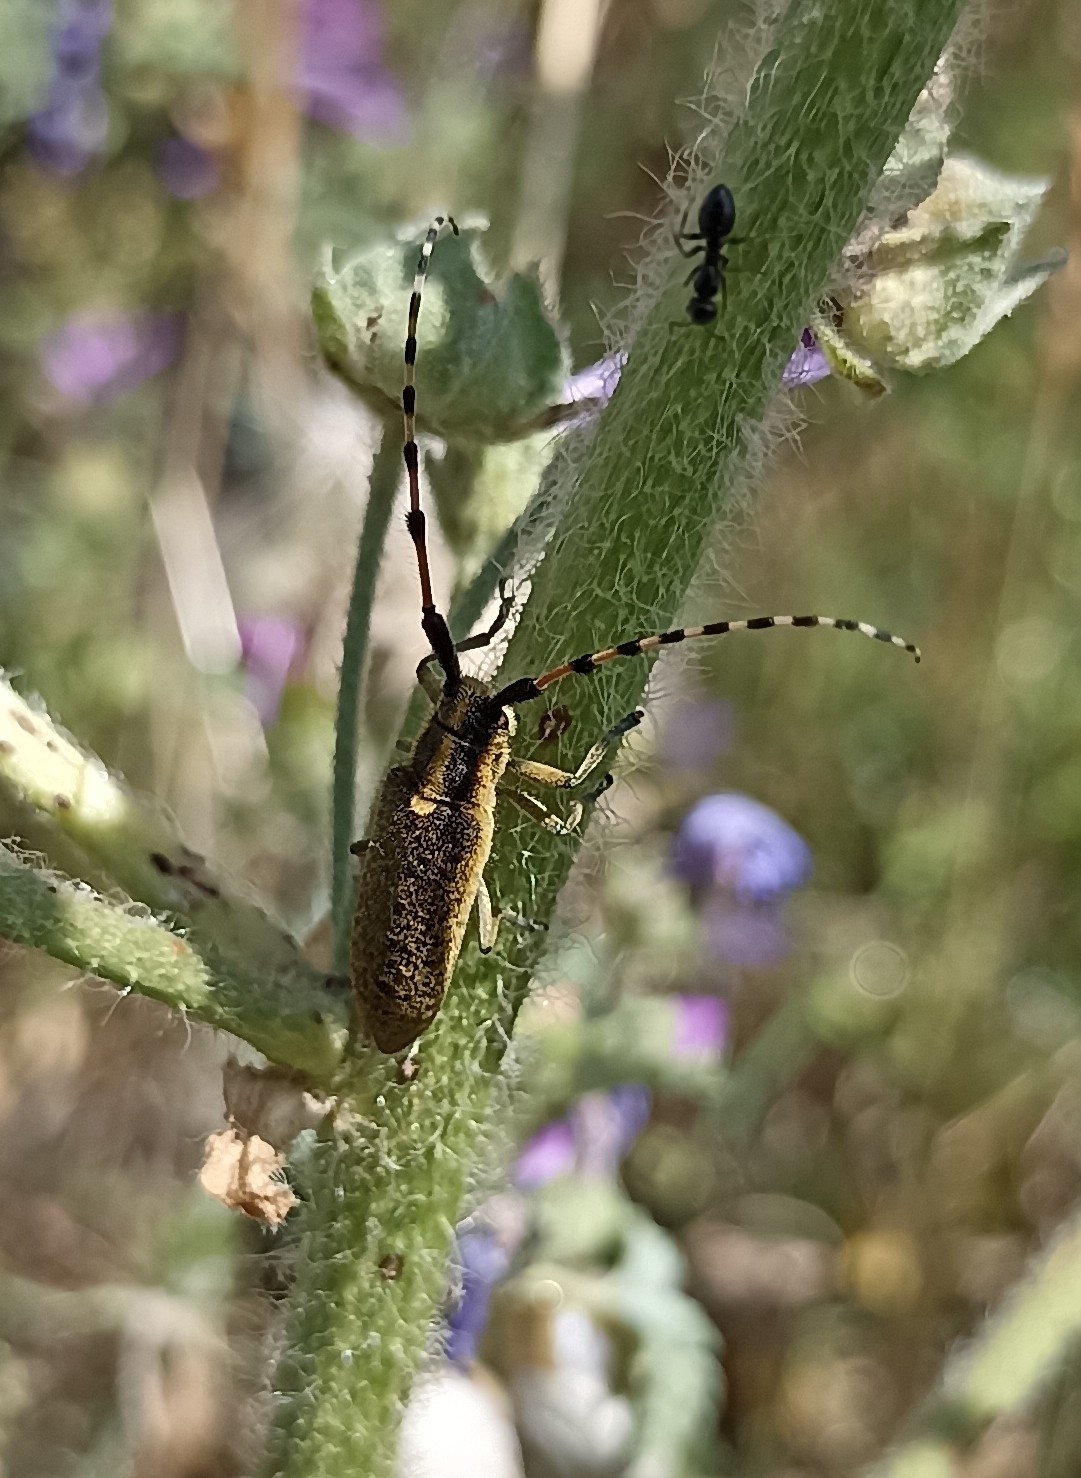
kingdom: Animalia
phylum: Arthropoda
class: Insecta
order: Coleoptera
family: Cerambycidae
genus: Agapanthia
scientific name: Agapanthia dahlii
